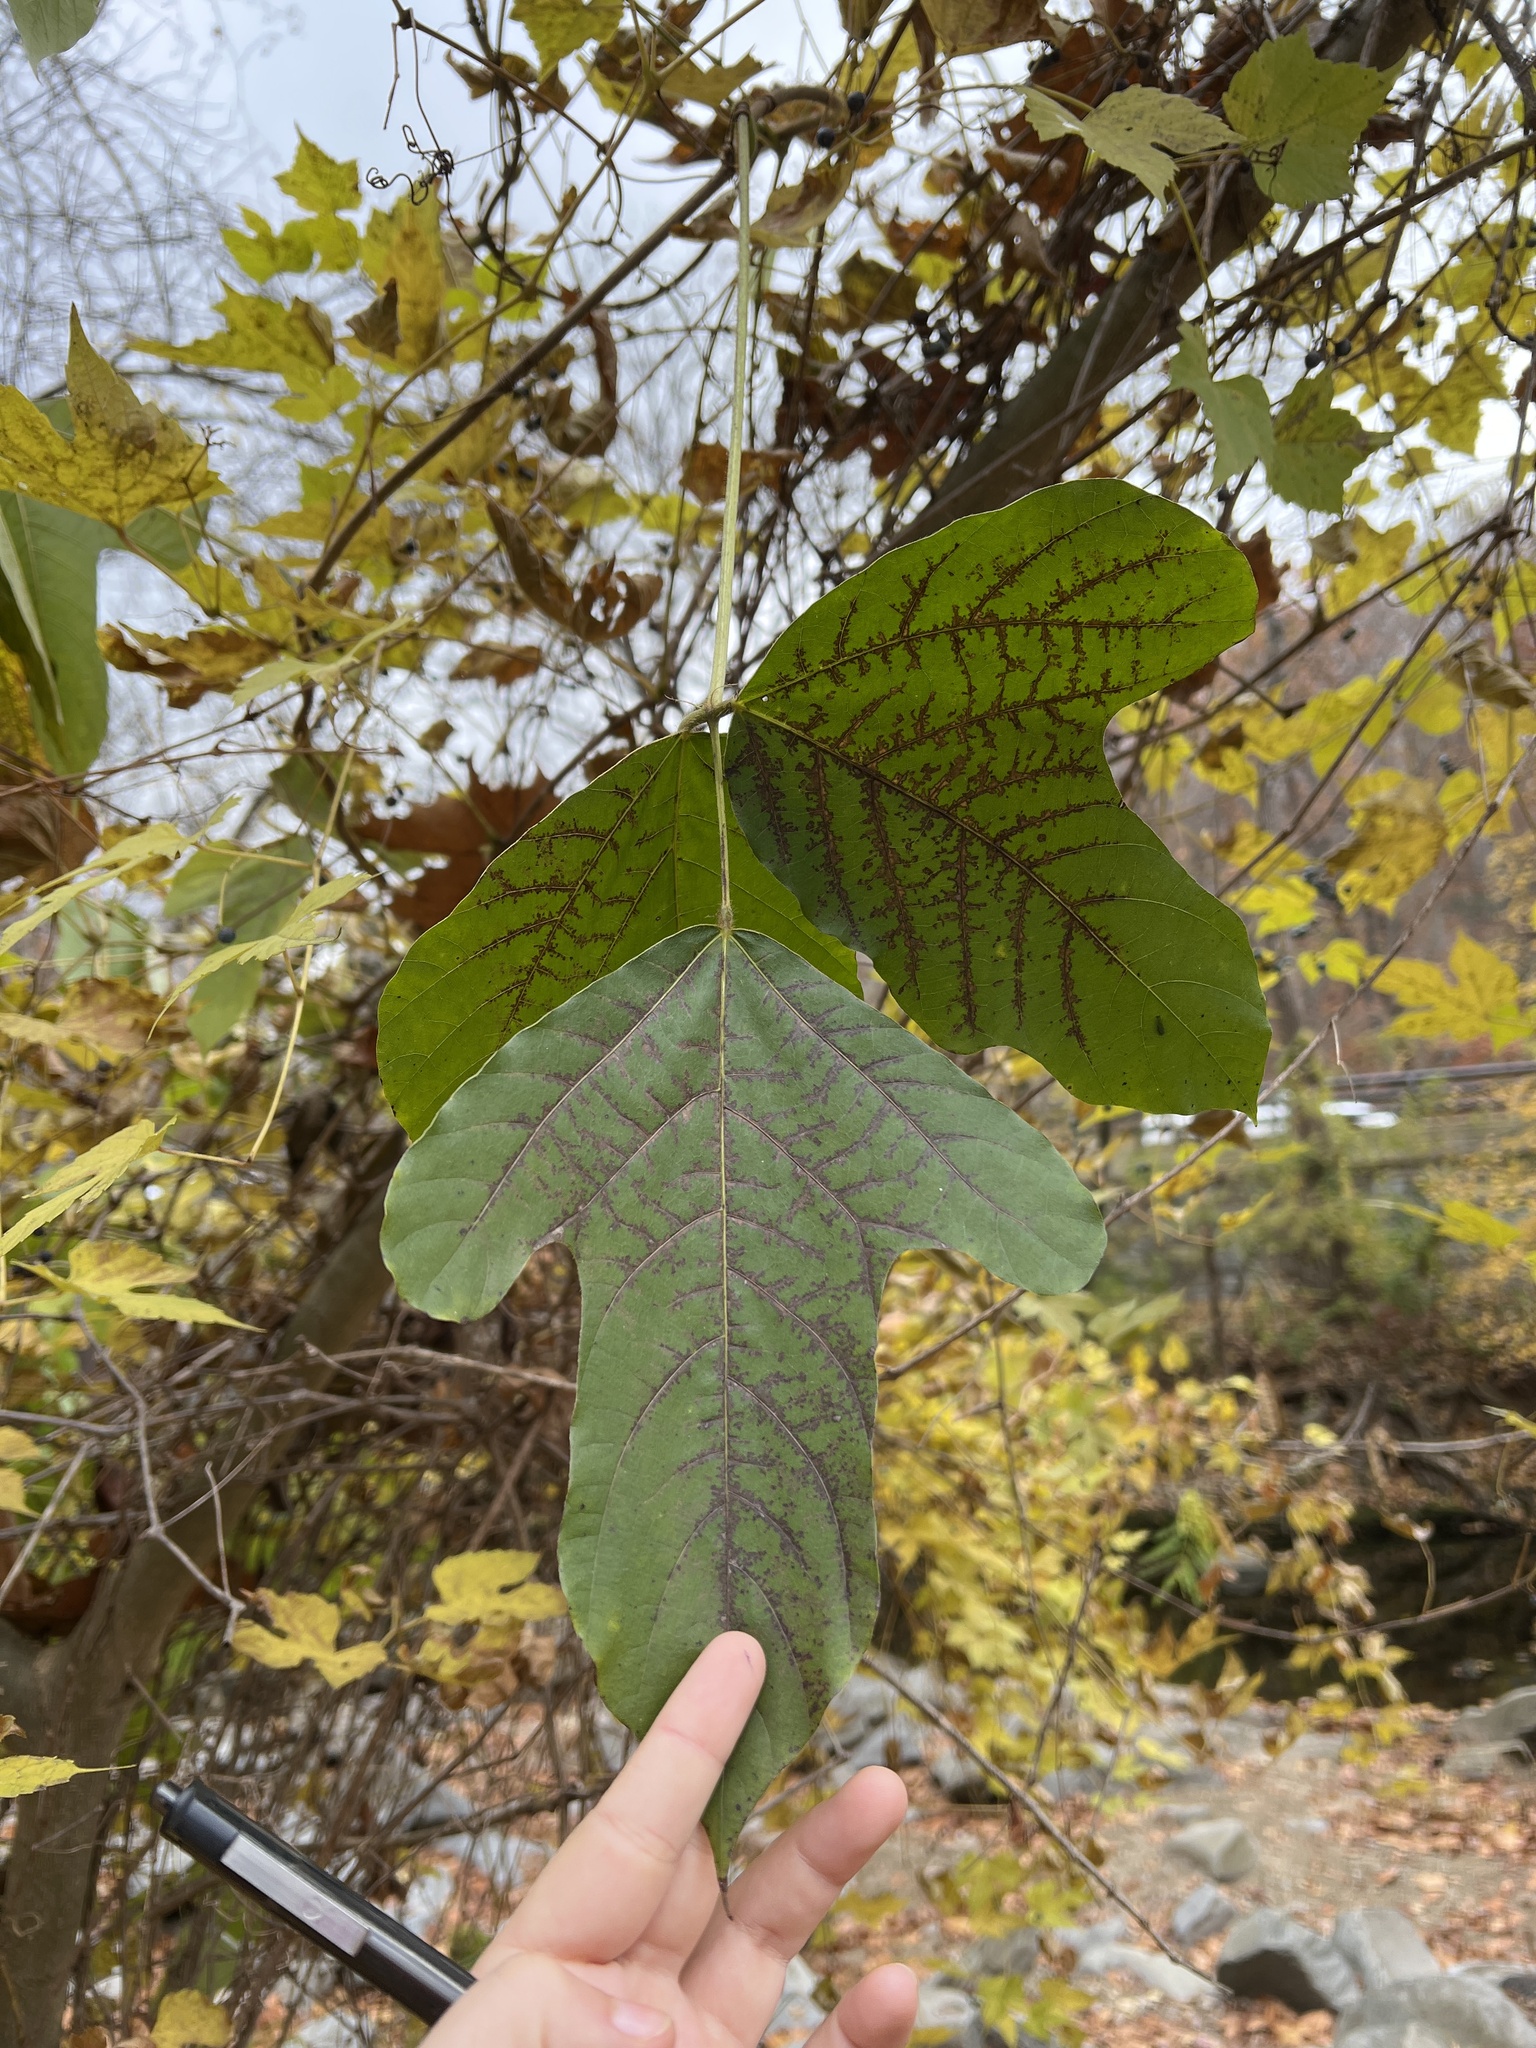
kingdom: Plantae
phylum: Tracheophyta
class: Magnoliopsida
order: Fabales
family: Fabaceae
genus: Pueraria
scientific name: Pueraria montana
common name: Kudzu
